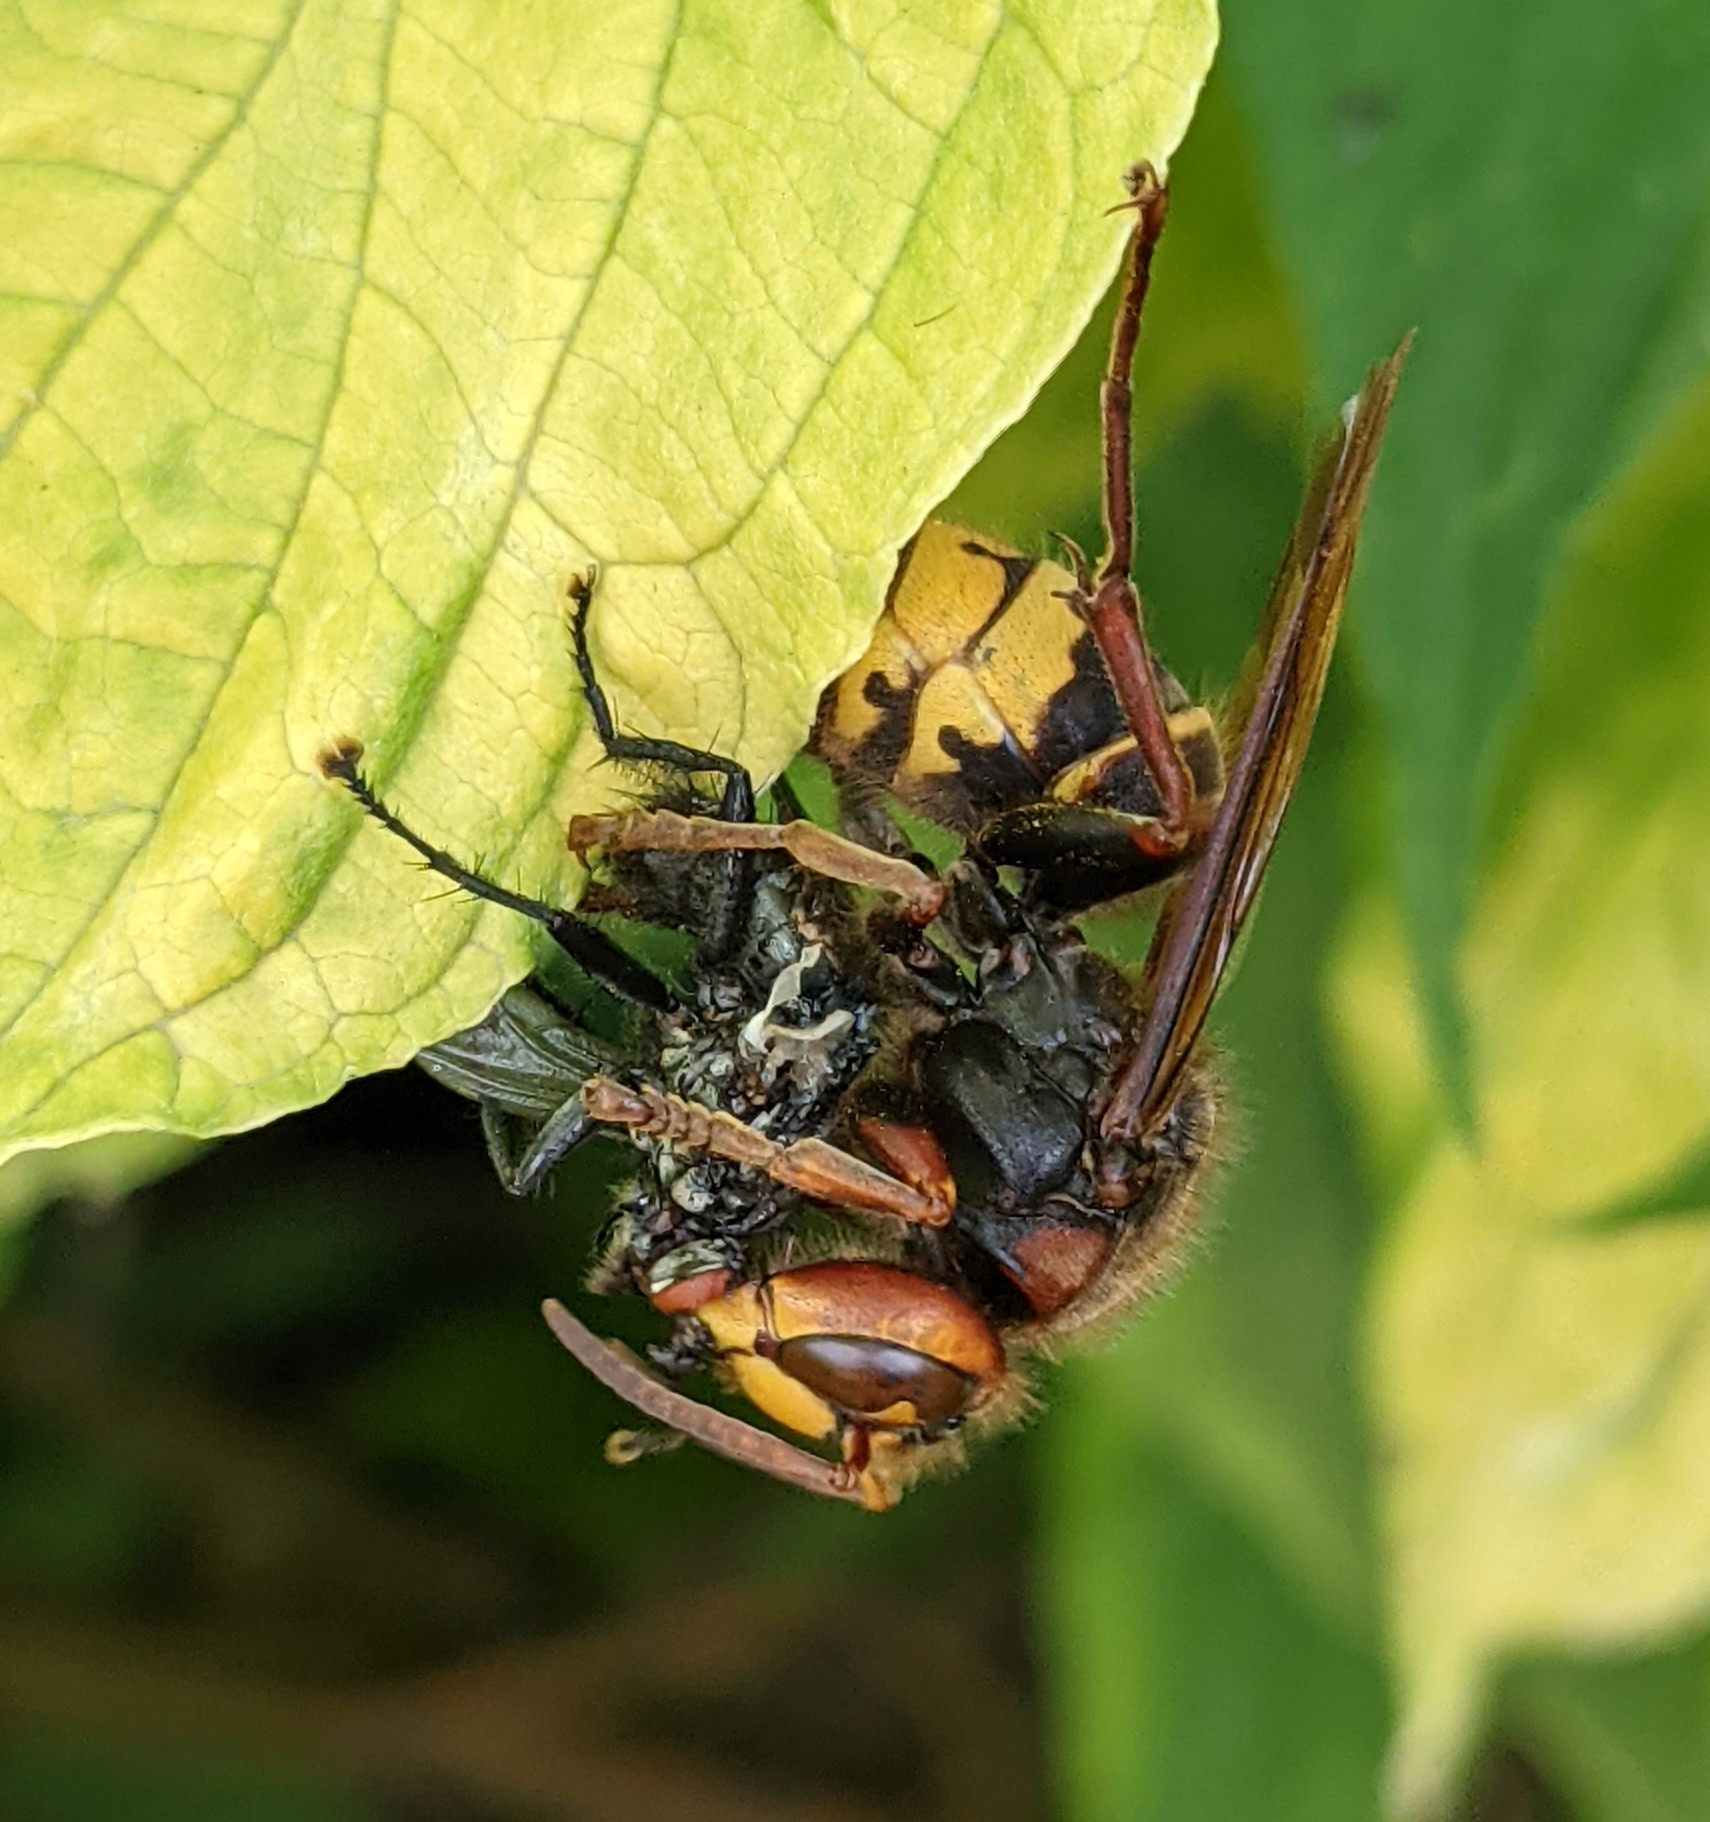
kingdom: Animalia
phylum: Arthropoda
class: Insecta
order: Hymenoptera
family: Vespidae
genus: Vespa
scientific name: Vespa crabro
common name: Hornet
